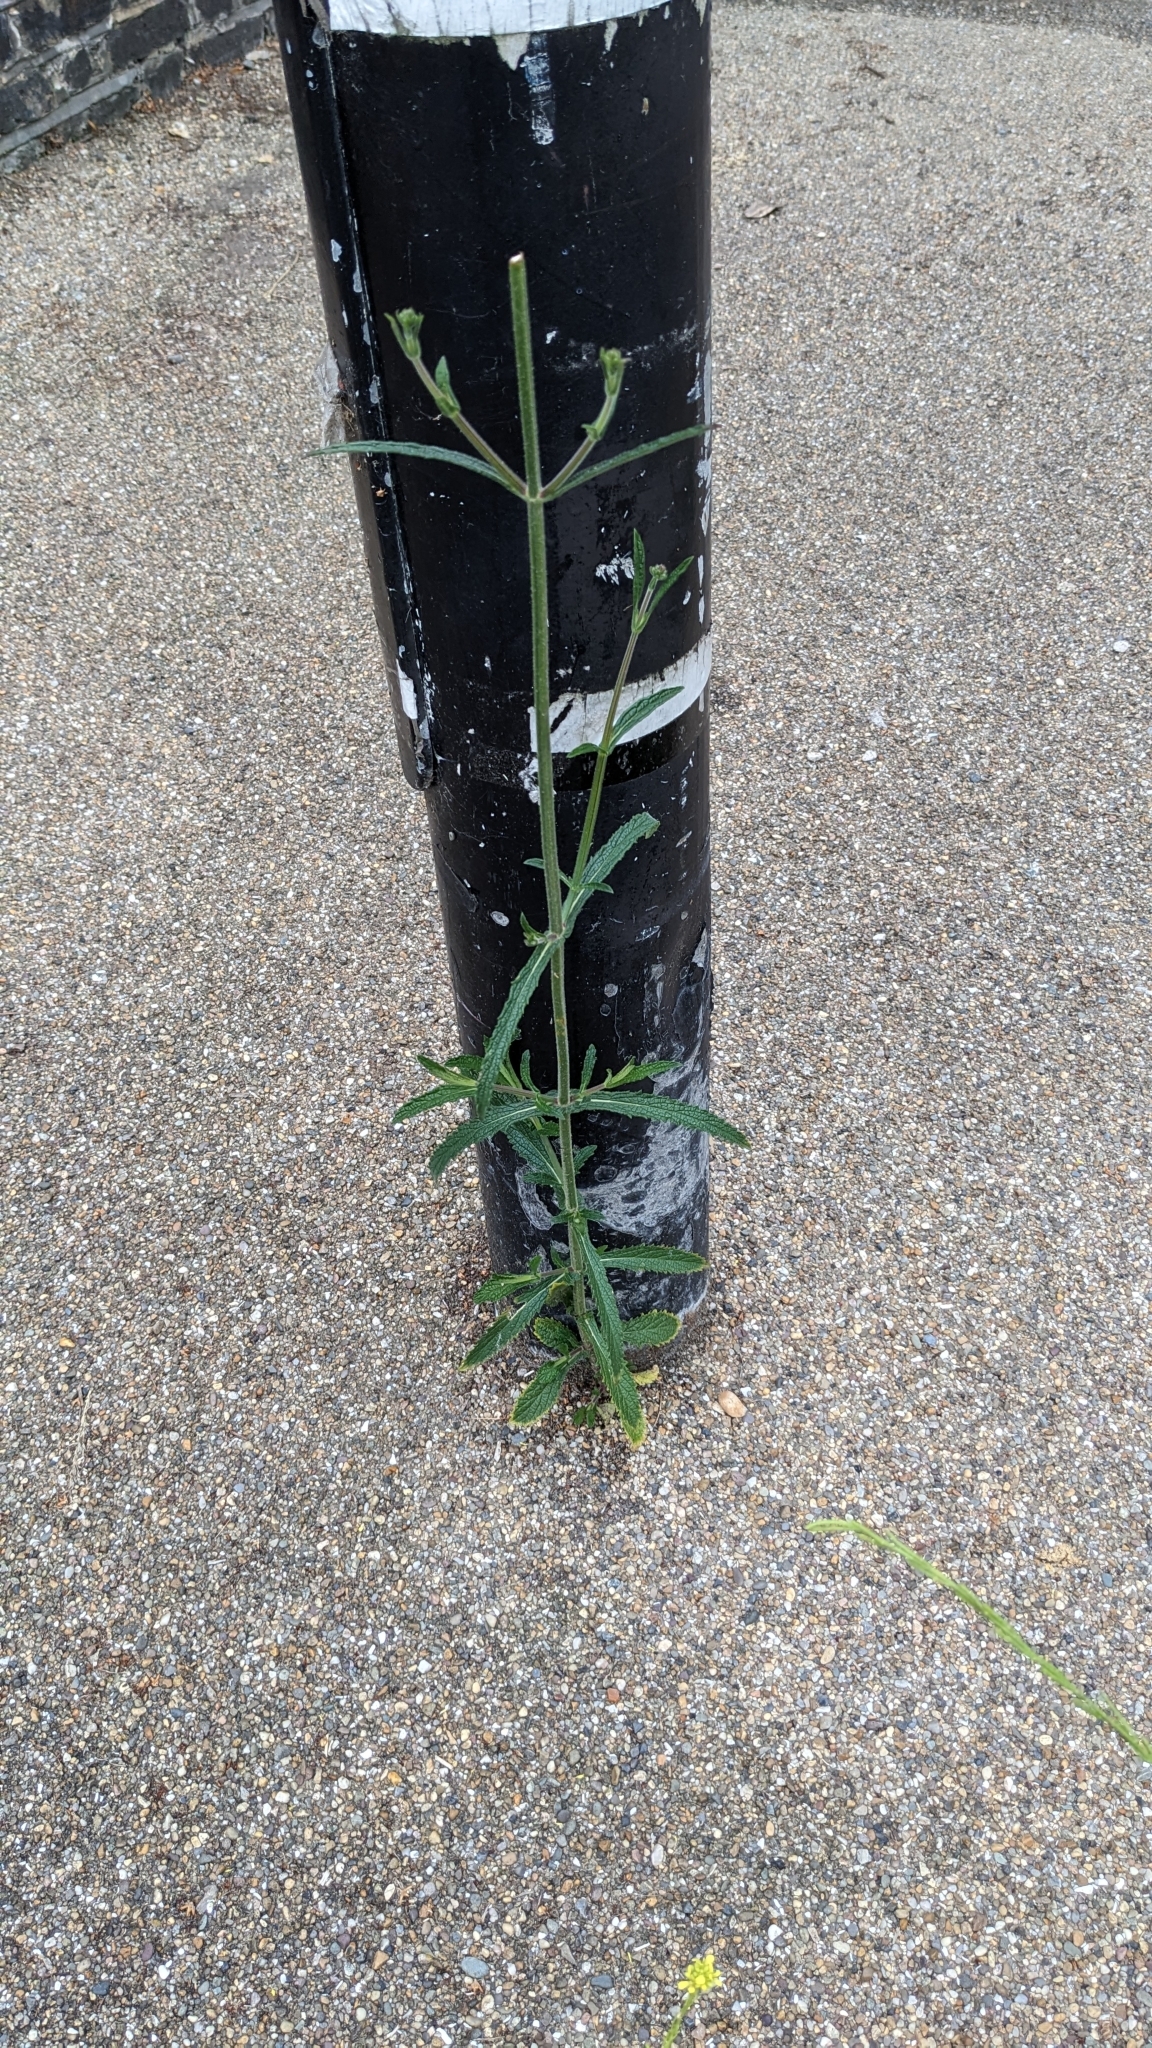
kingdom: Plantae
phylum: Tracheophyta
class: Magnoliopsida
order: Lamiales
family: Verbenaceae
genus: Verbena
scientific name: Verbena bonariensis
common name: Purpletop vervain
